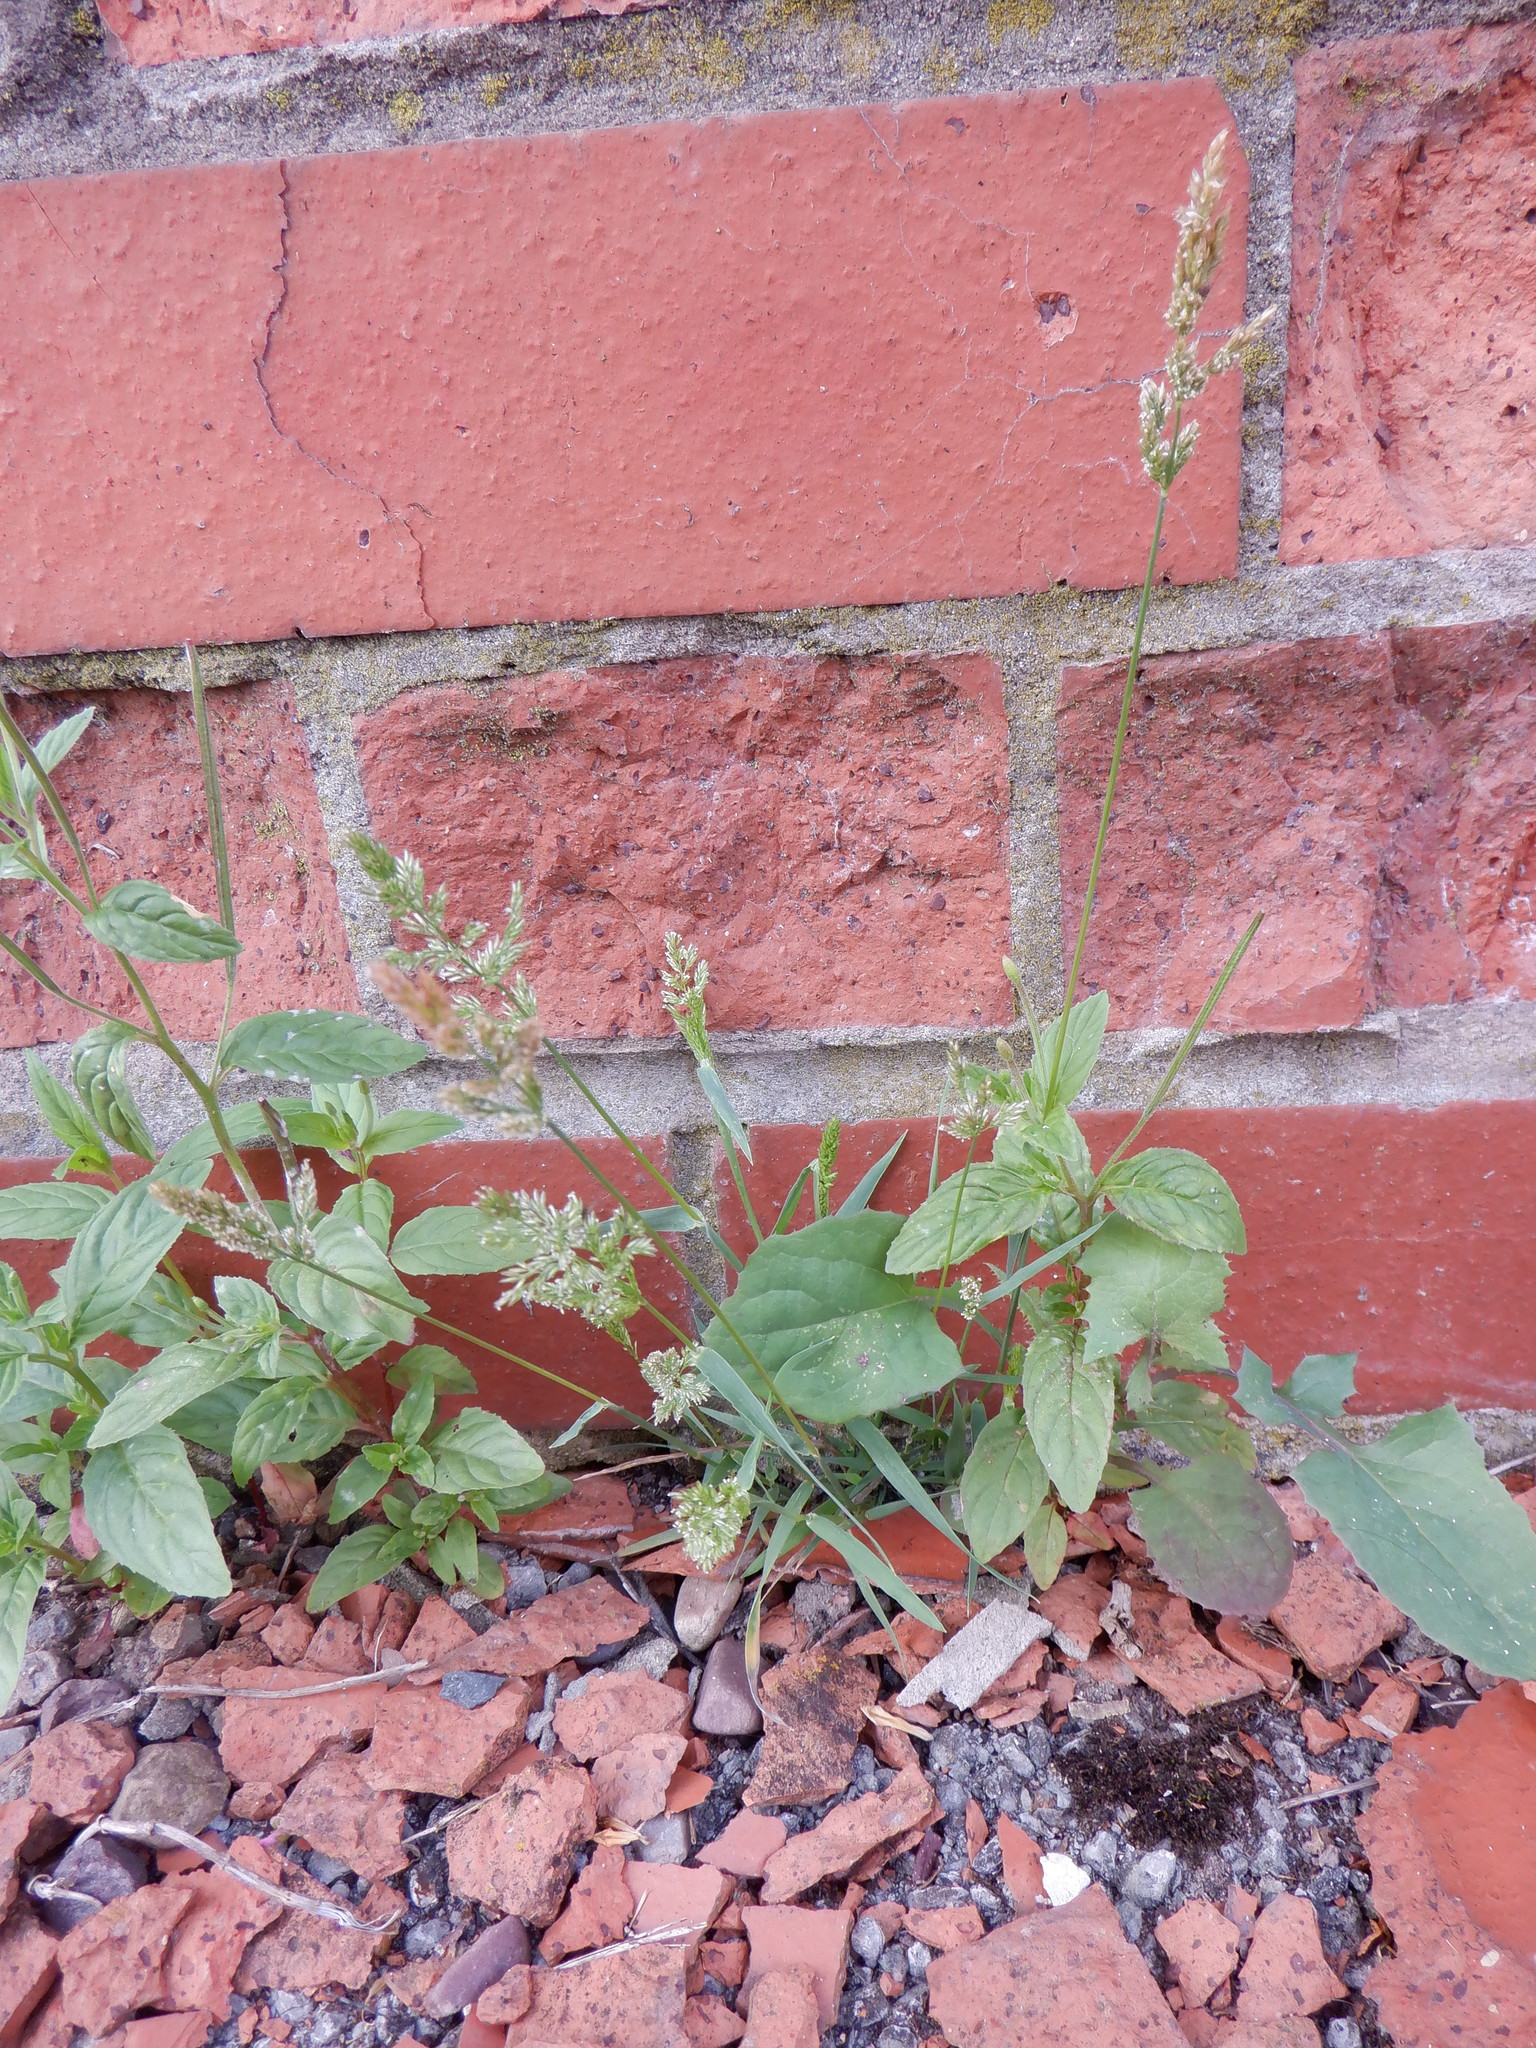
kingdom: Plantae
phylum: Tracheophyta
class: Liliopsida
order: Poales
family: Poaceae
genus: Polypogon
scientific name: Polypogon viridis
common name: Water bent
